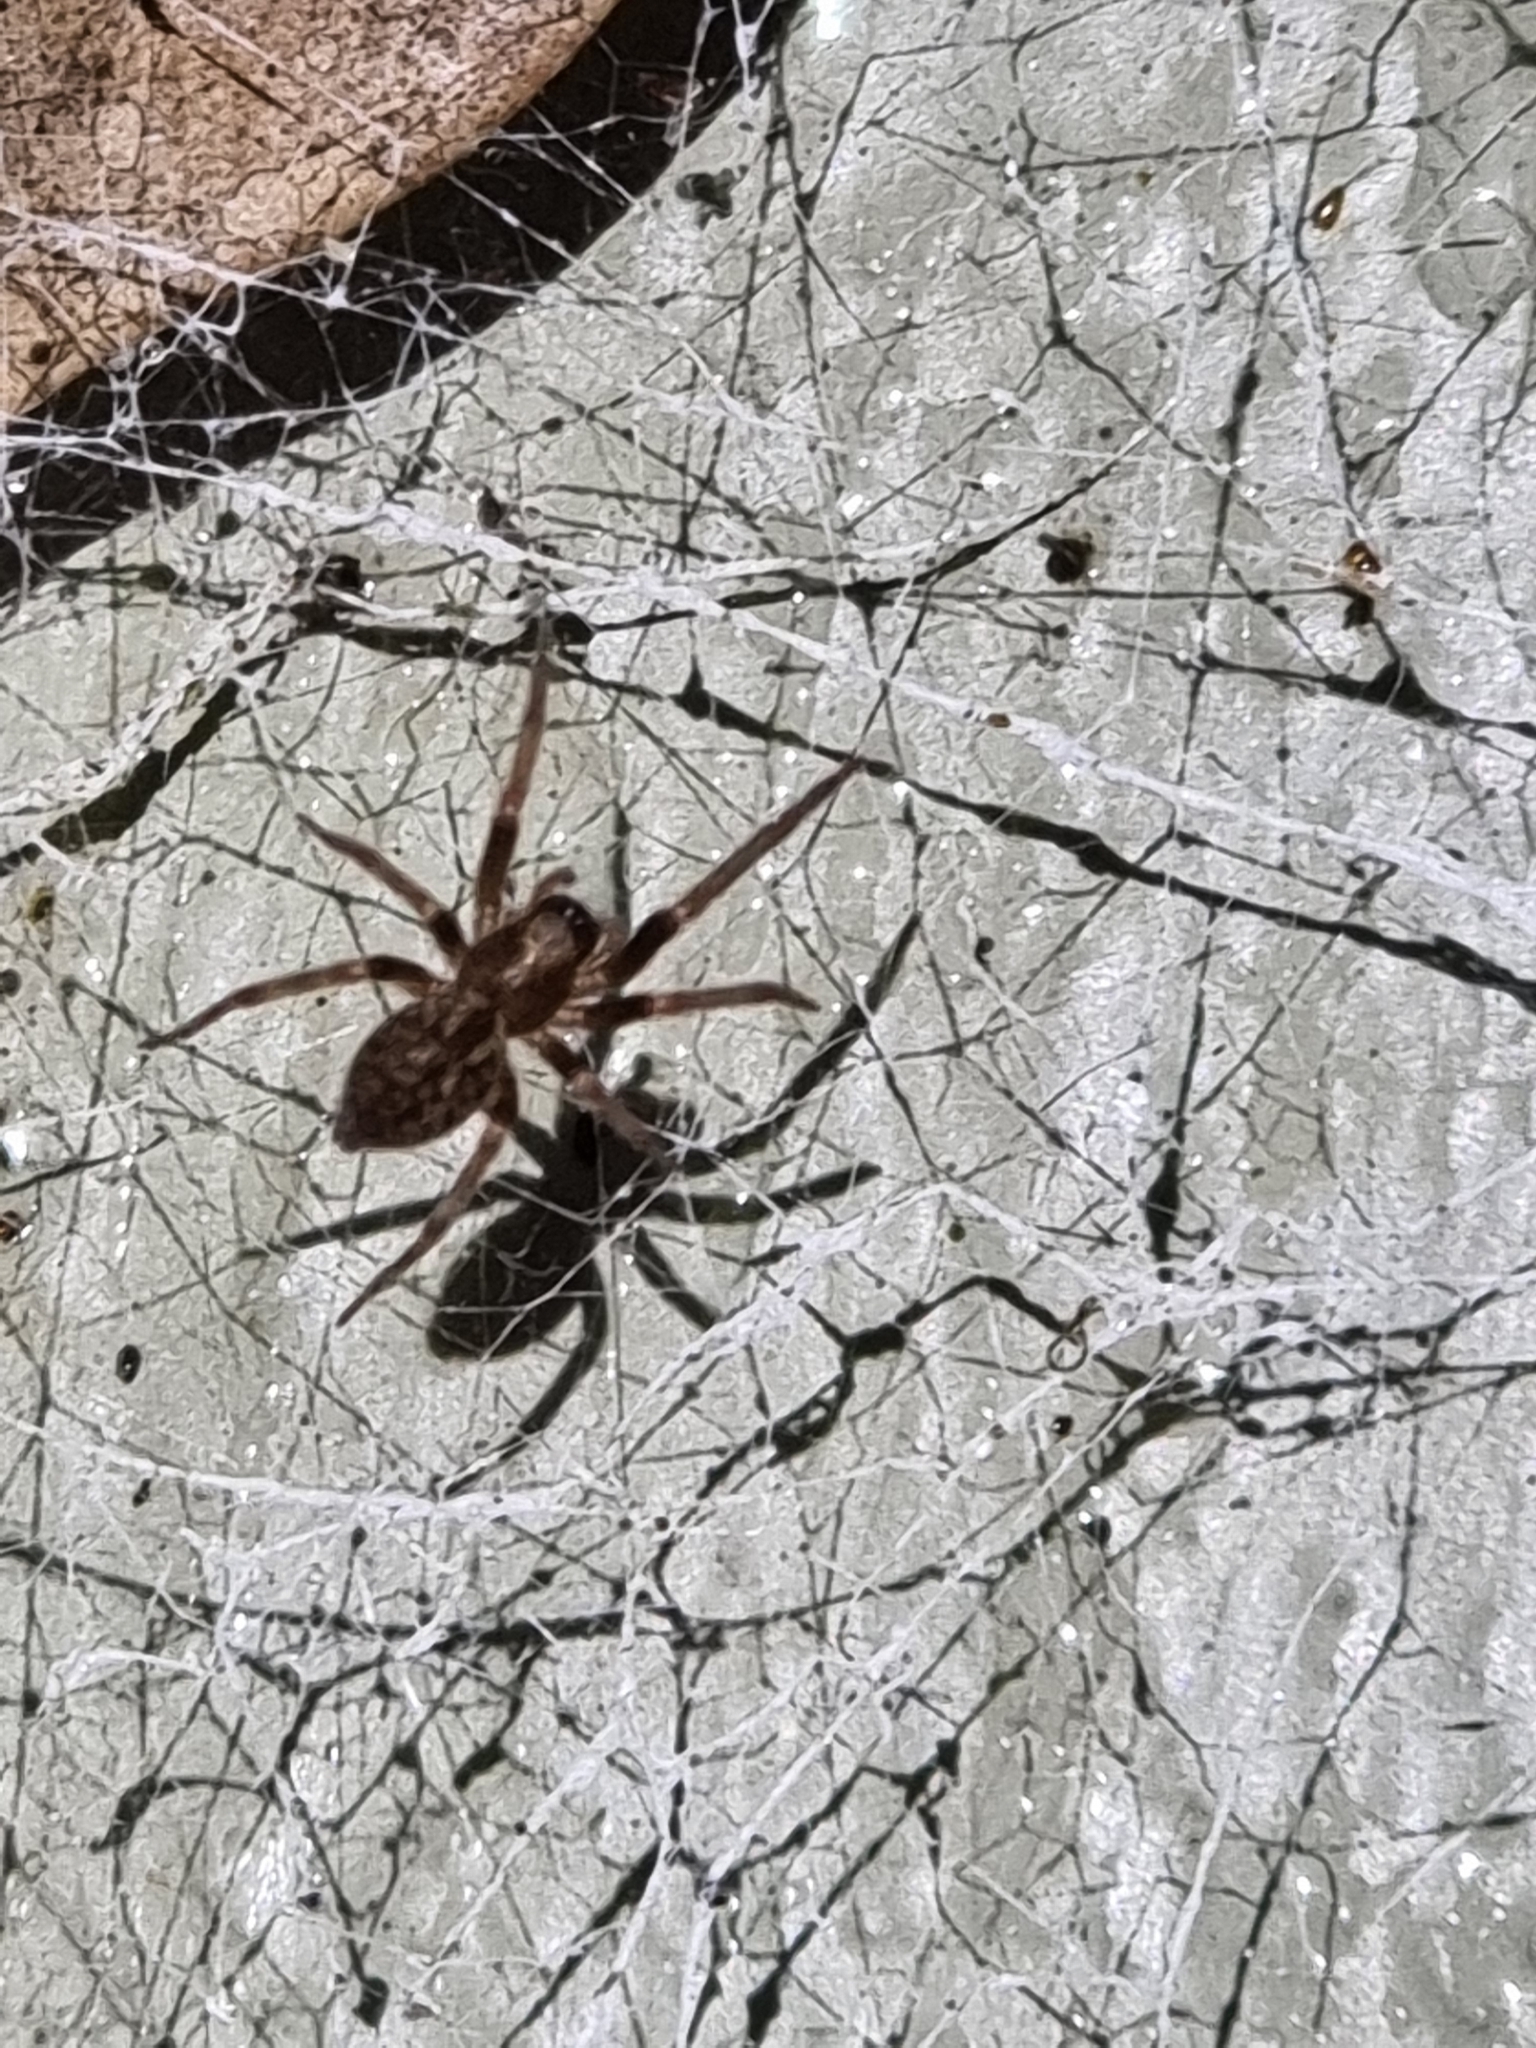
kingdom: Animalia
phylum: Arthropoda
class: Arachnida
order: Araneae
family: Desidae
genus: Badumna
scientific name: Badumna longinqua
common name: Gray house spider
